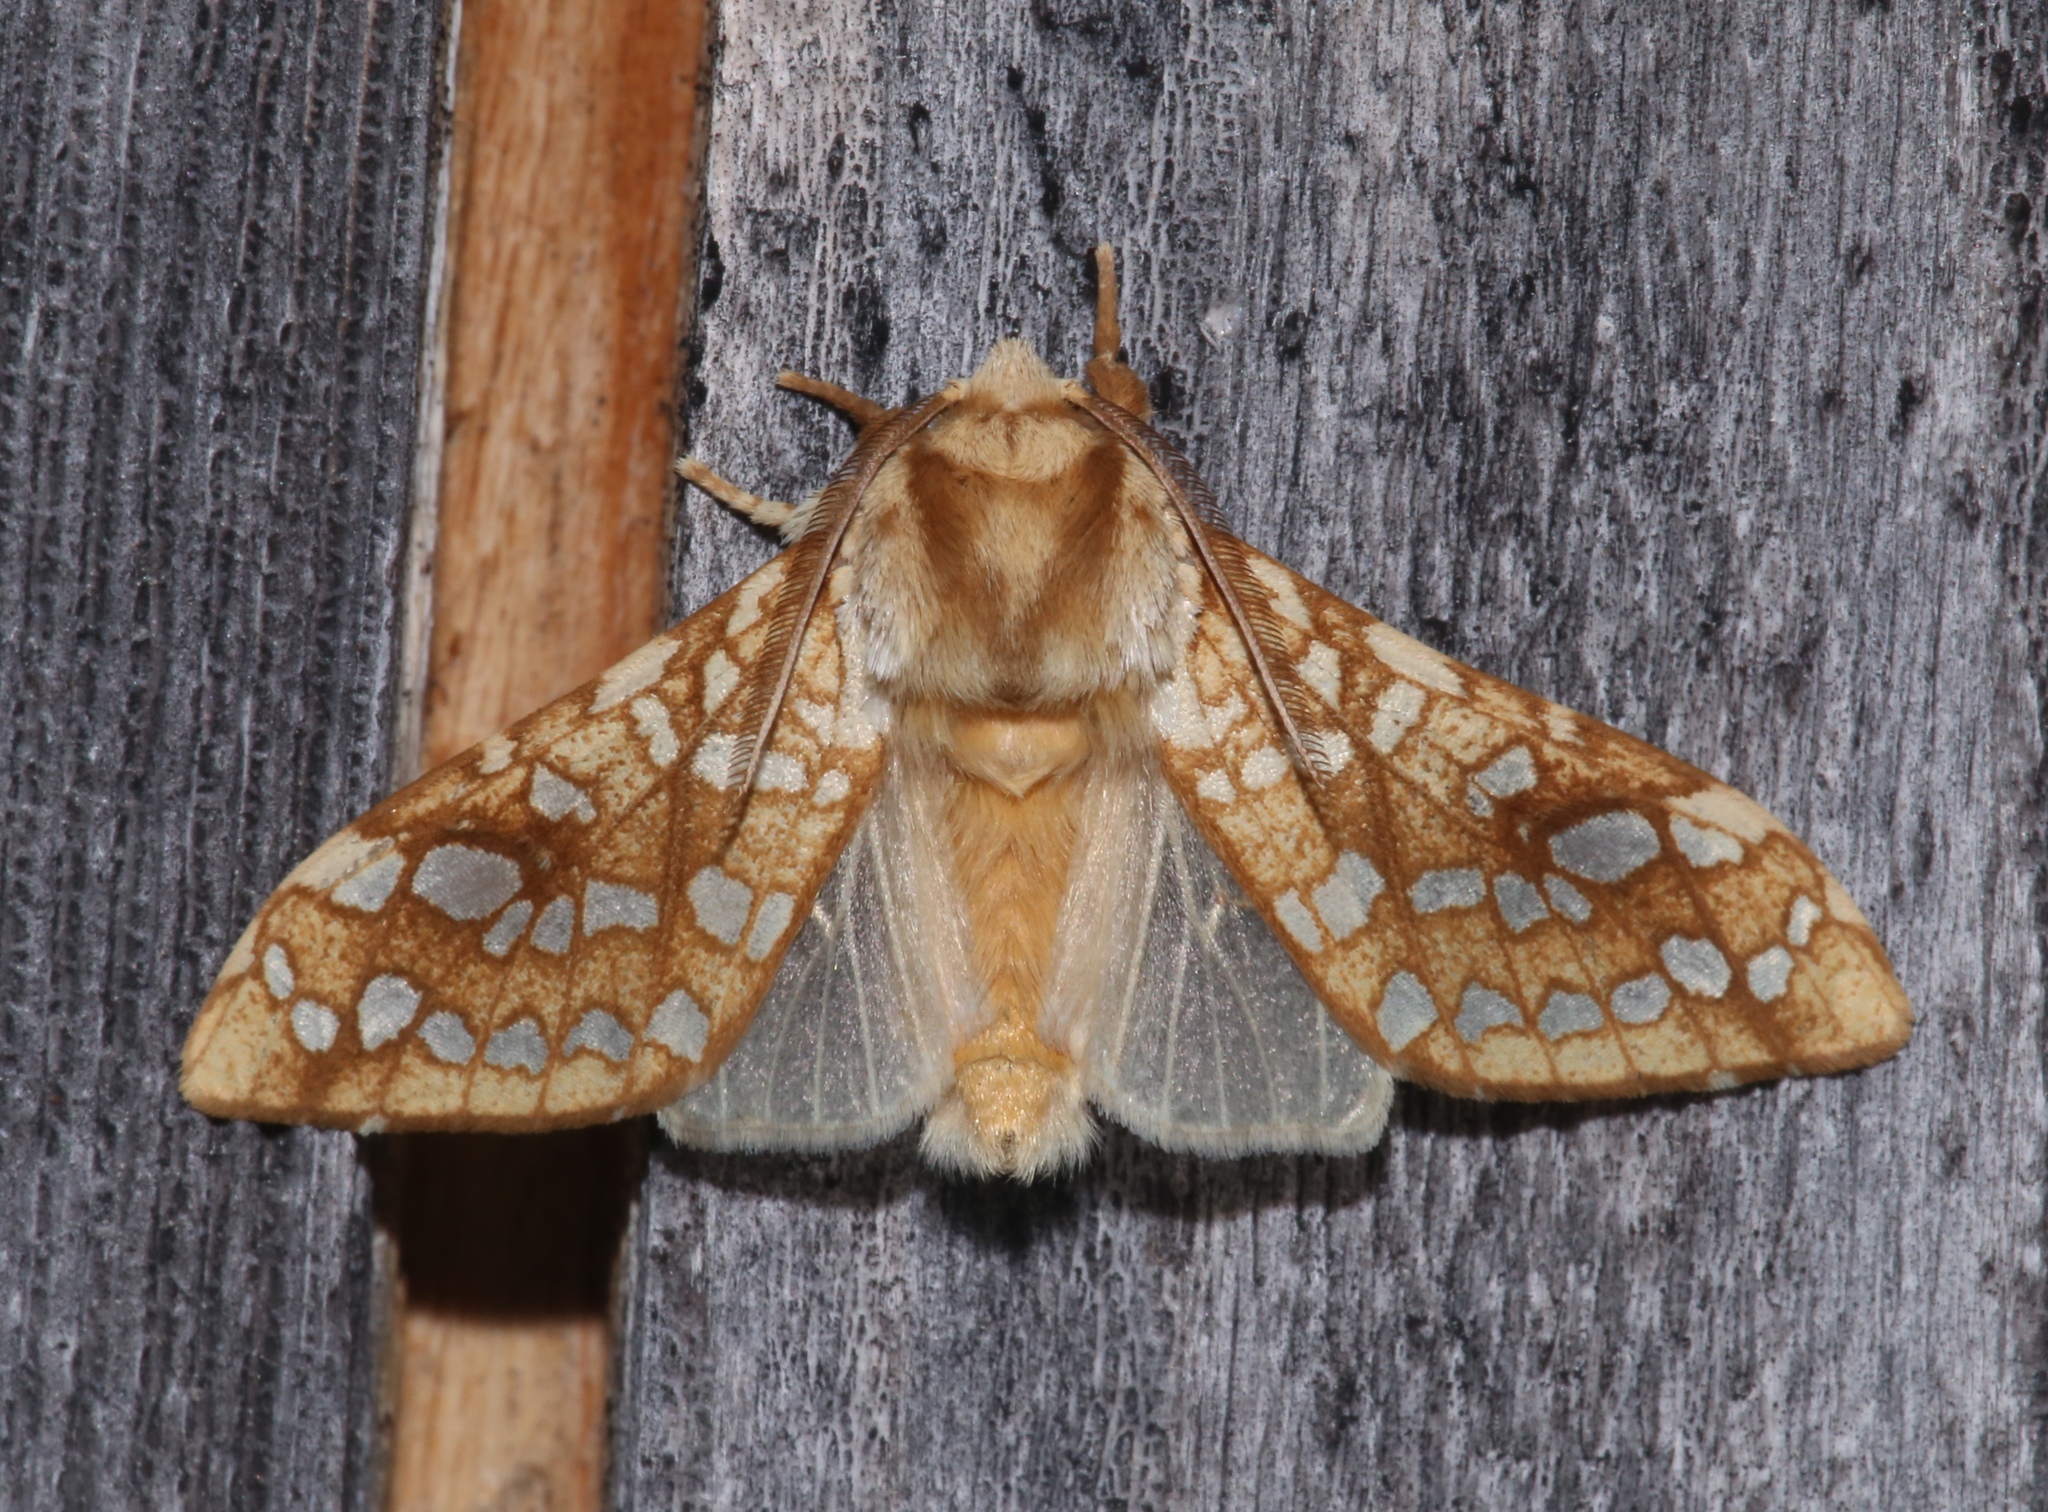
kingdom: Animalia
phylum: Arthropoda
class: Insecta
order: Lepidoptera
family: Erebidae
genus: Lophocampa
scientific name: Lophocampa caryae
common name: Hickory tussock moth
